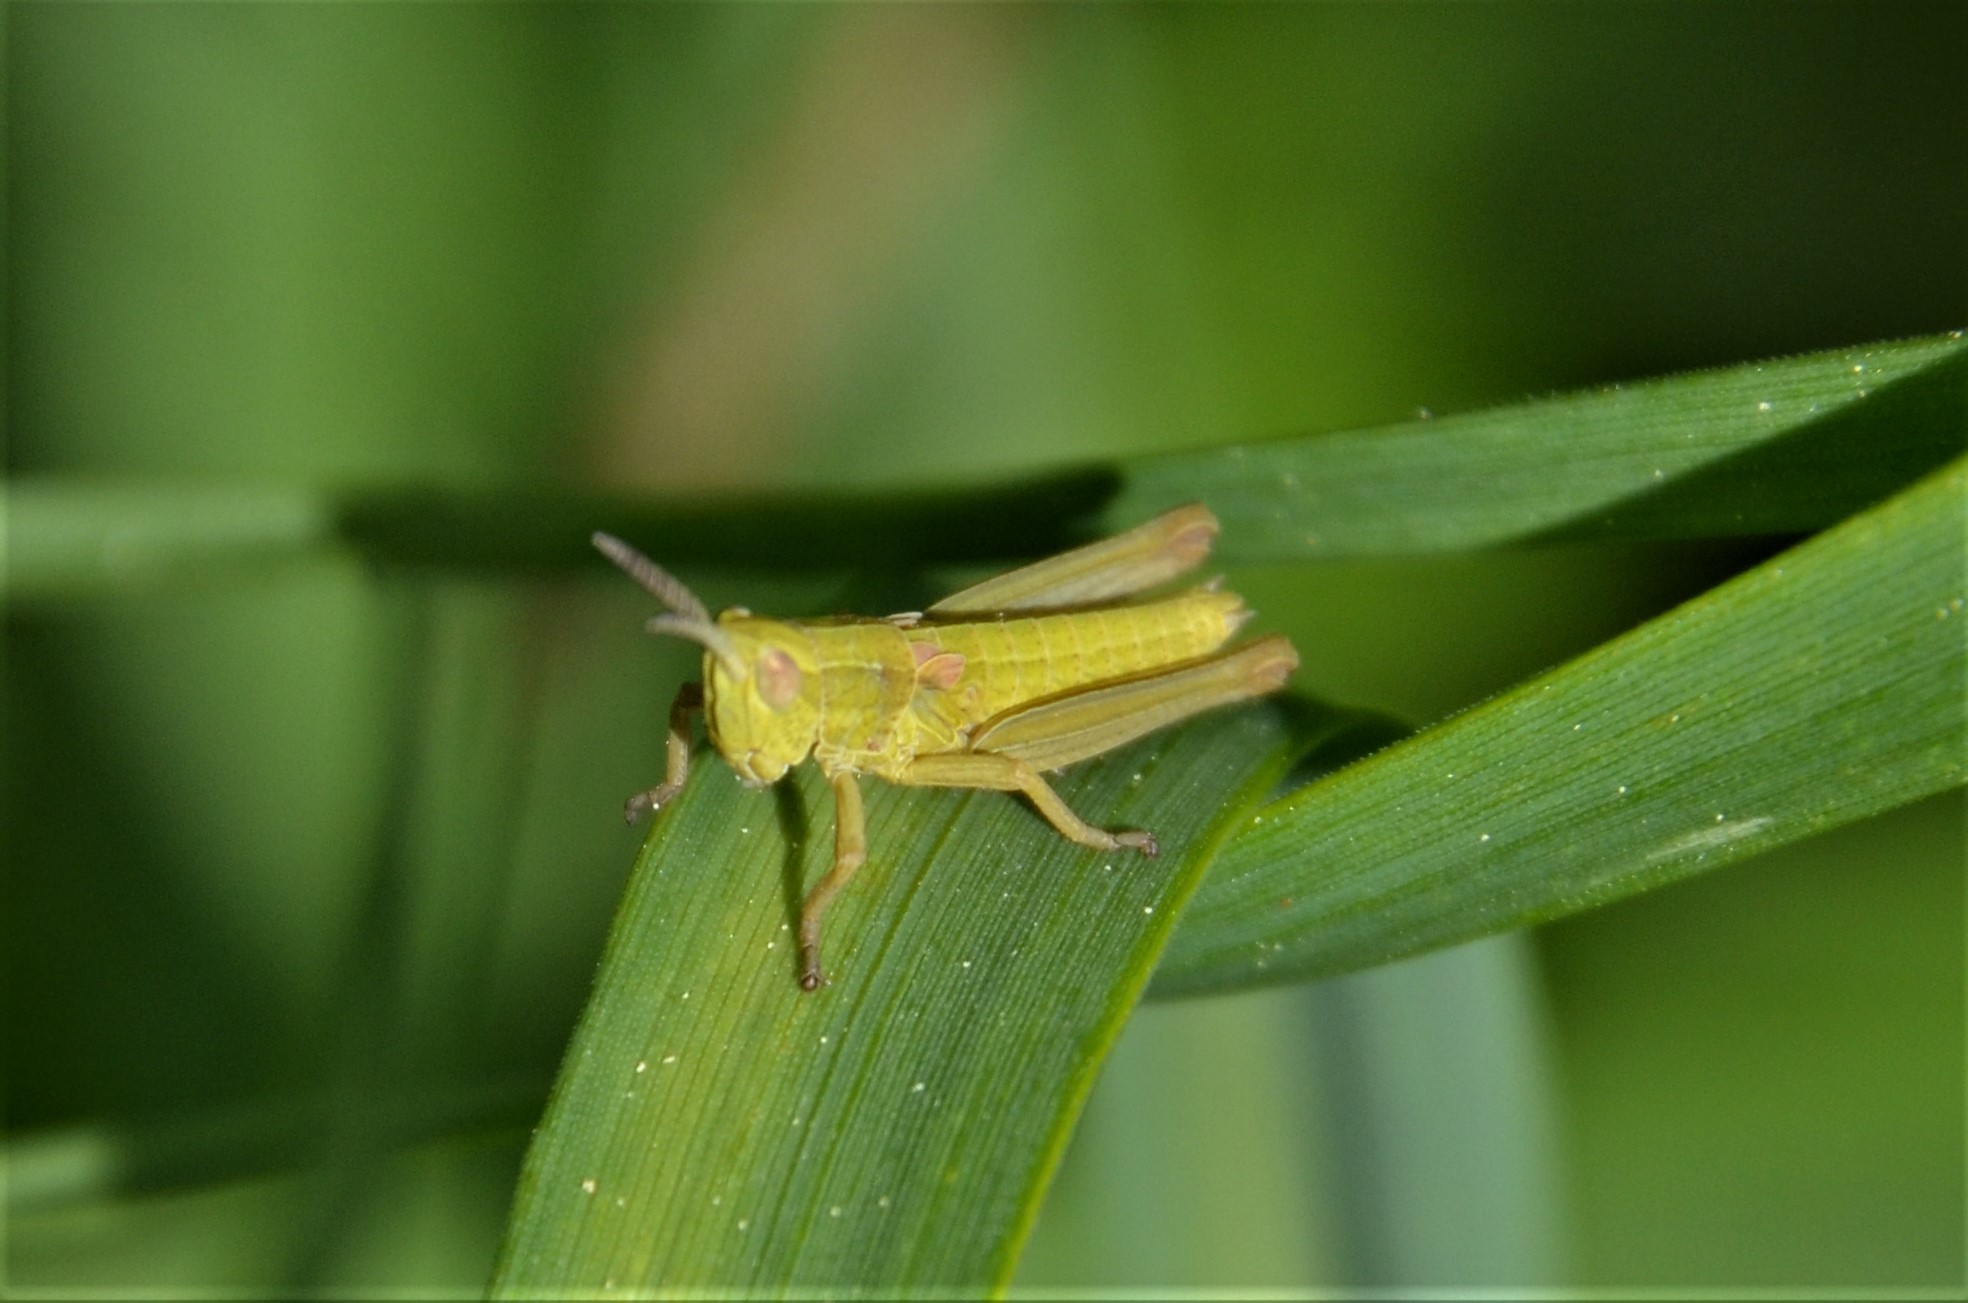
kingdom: Animalia
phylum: Arthropoda
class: Insecta
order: Orthoptera
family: Acrididae
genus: Euthystira
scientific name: Euthystira brachyptera
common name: Small gold grasshopper
